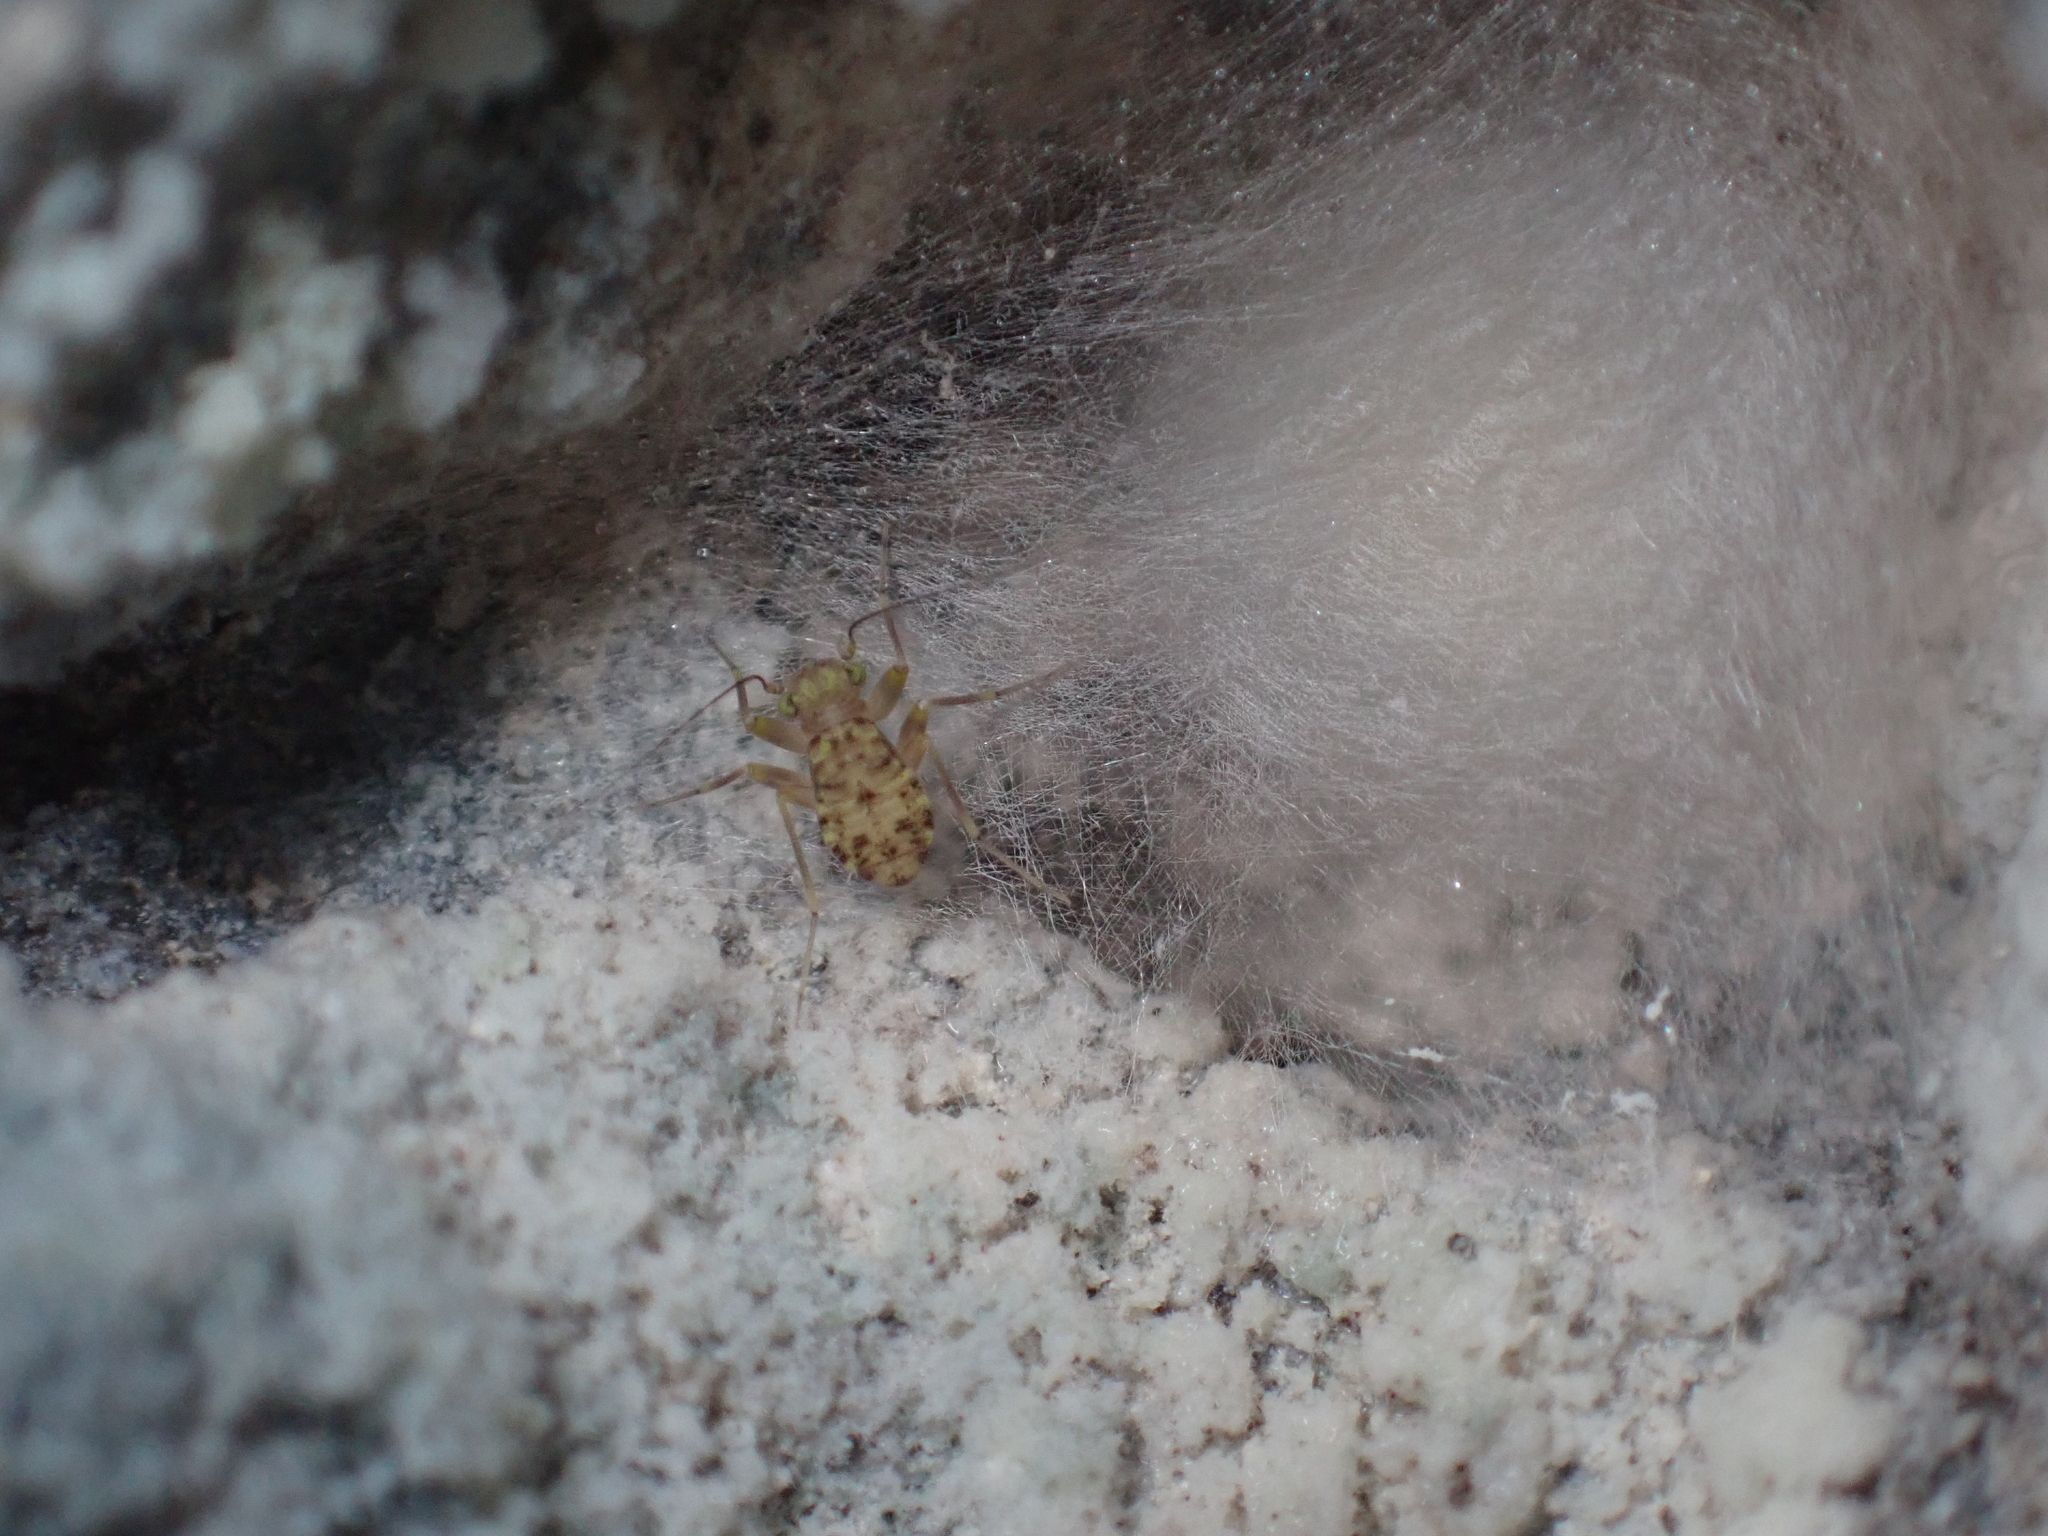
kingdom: Animalia
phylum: Arthropoda
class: Insecta
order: Psocodea
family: Prionoglarididae
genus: Prionoglaris
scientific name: Prionoglaris stygia
